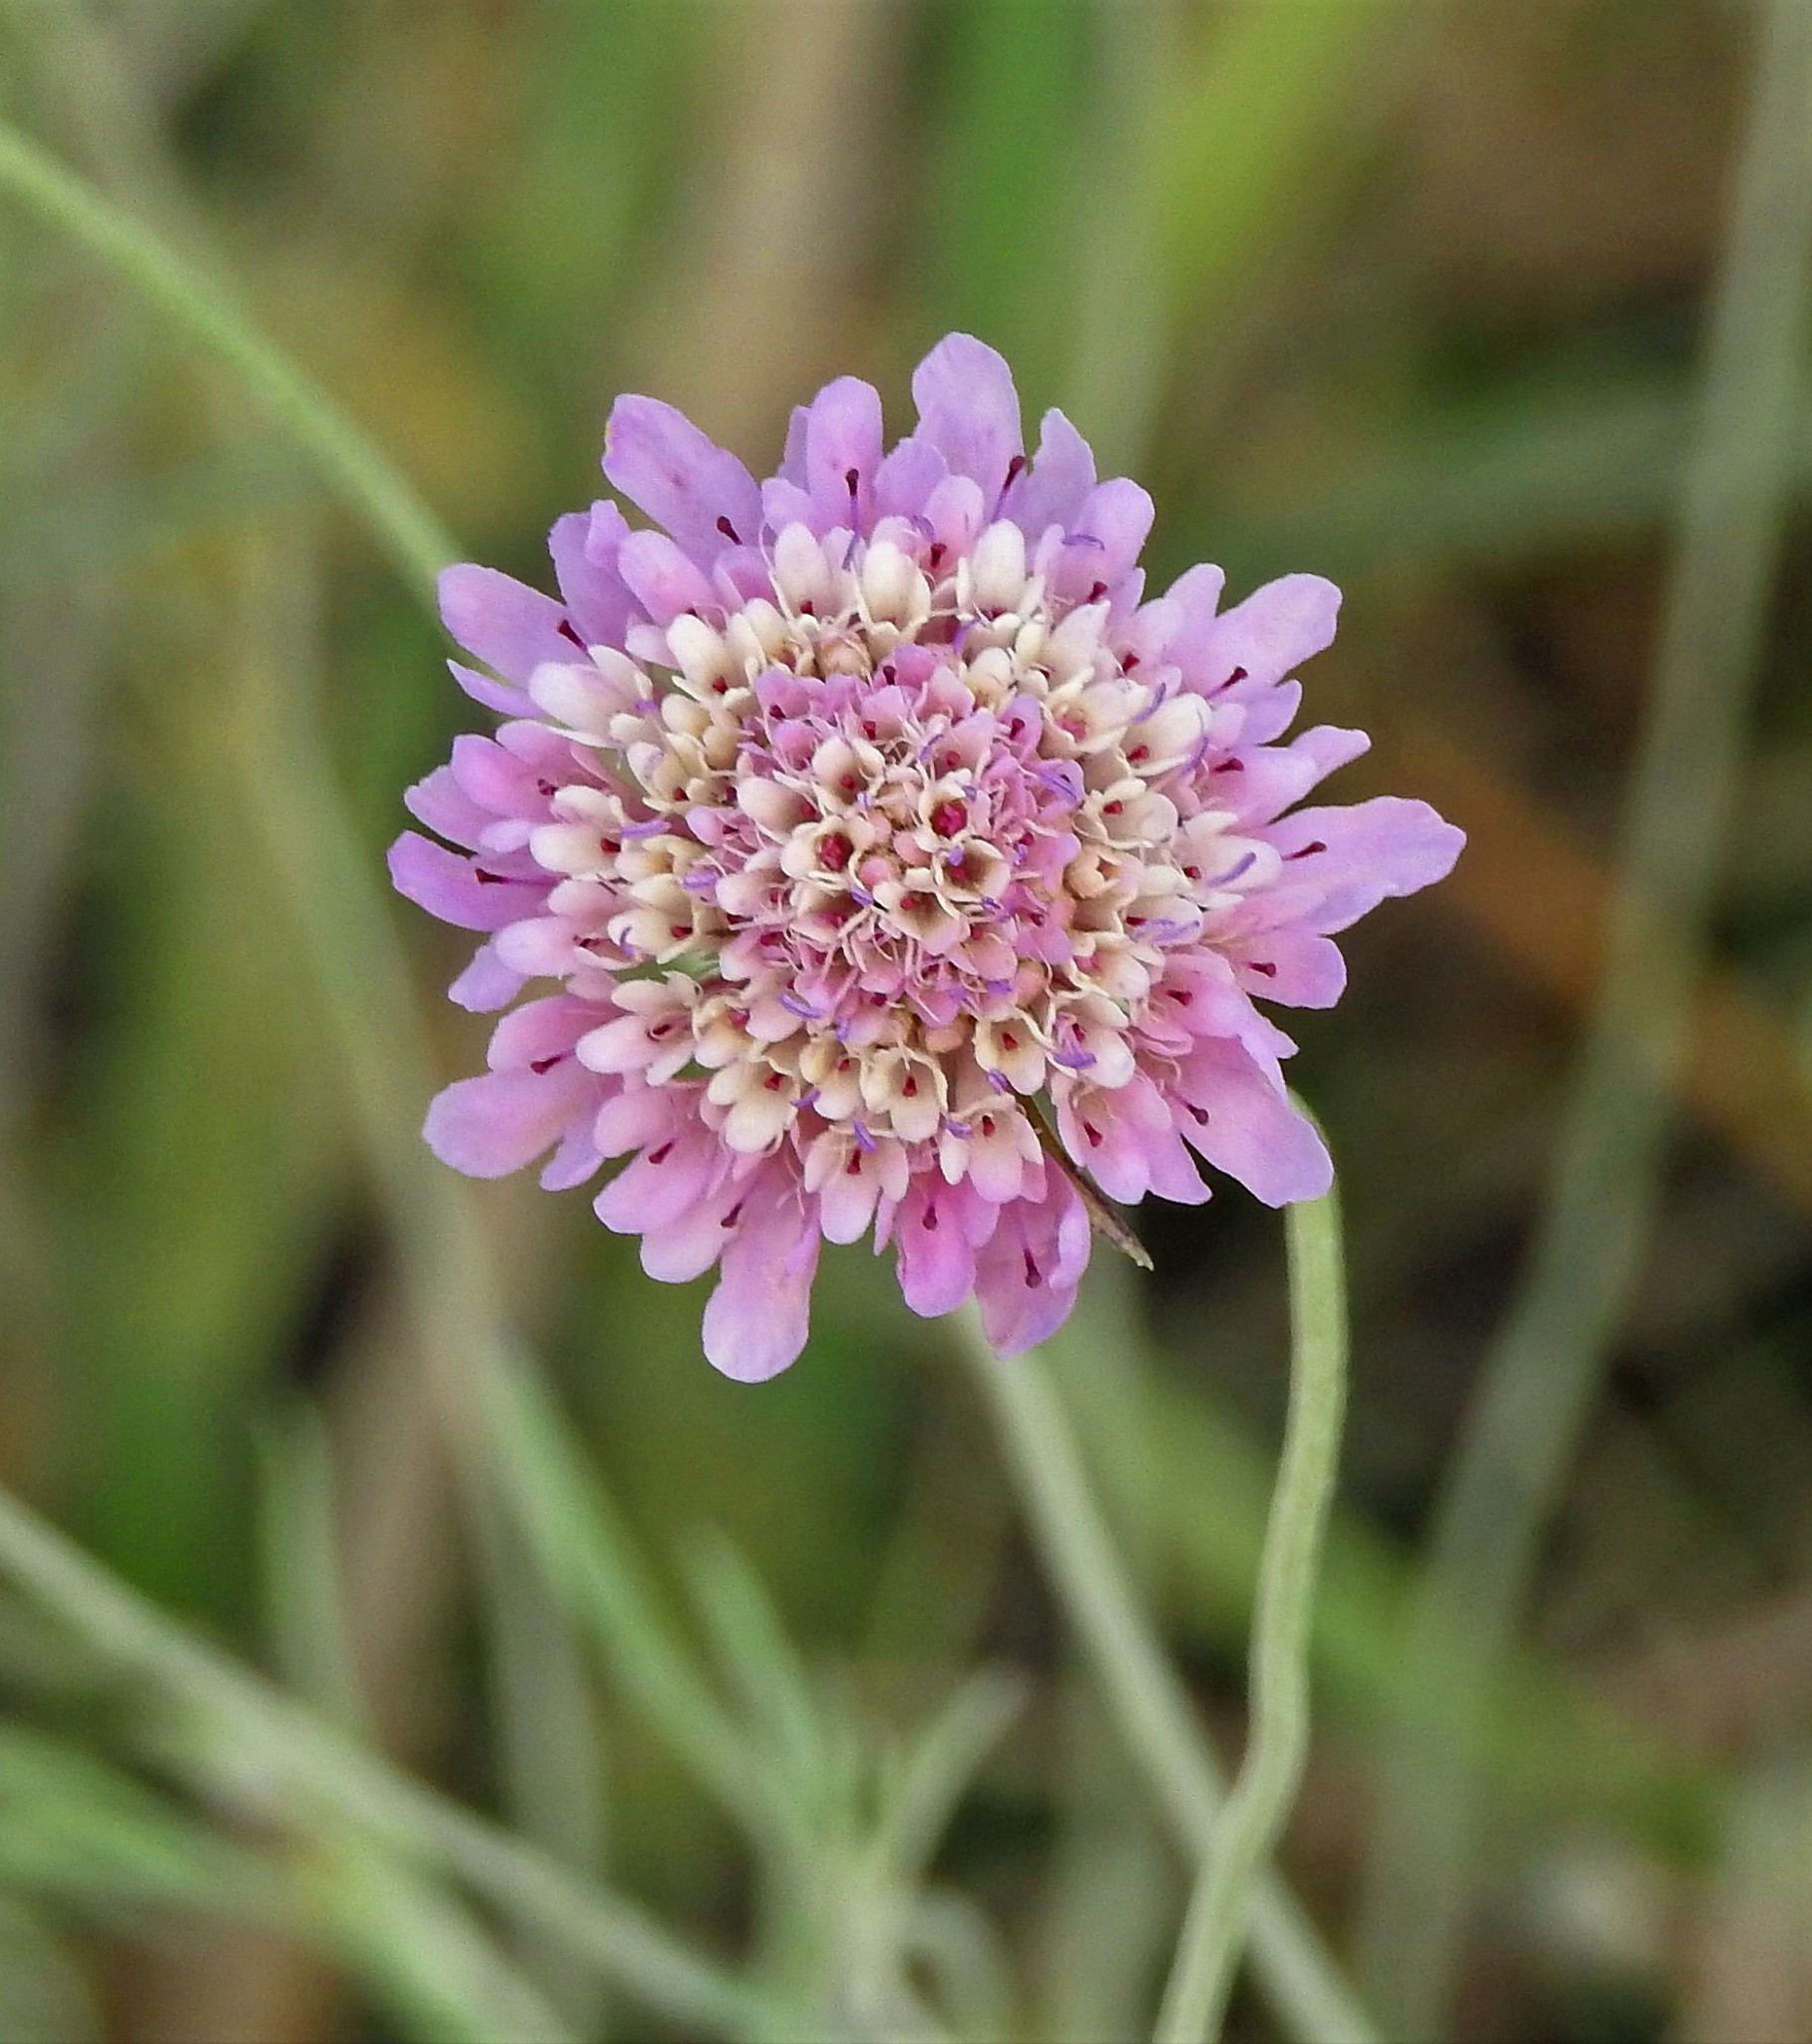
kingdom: Plantae
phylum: Tracheophyta
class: Magnoliopsida
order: Dipsacales
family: Caprifoliaceae
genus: Sixalix
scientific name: Sixalix atropurpurea
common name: Sweet scabious
